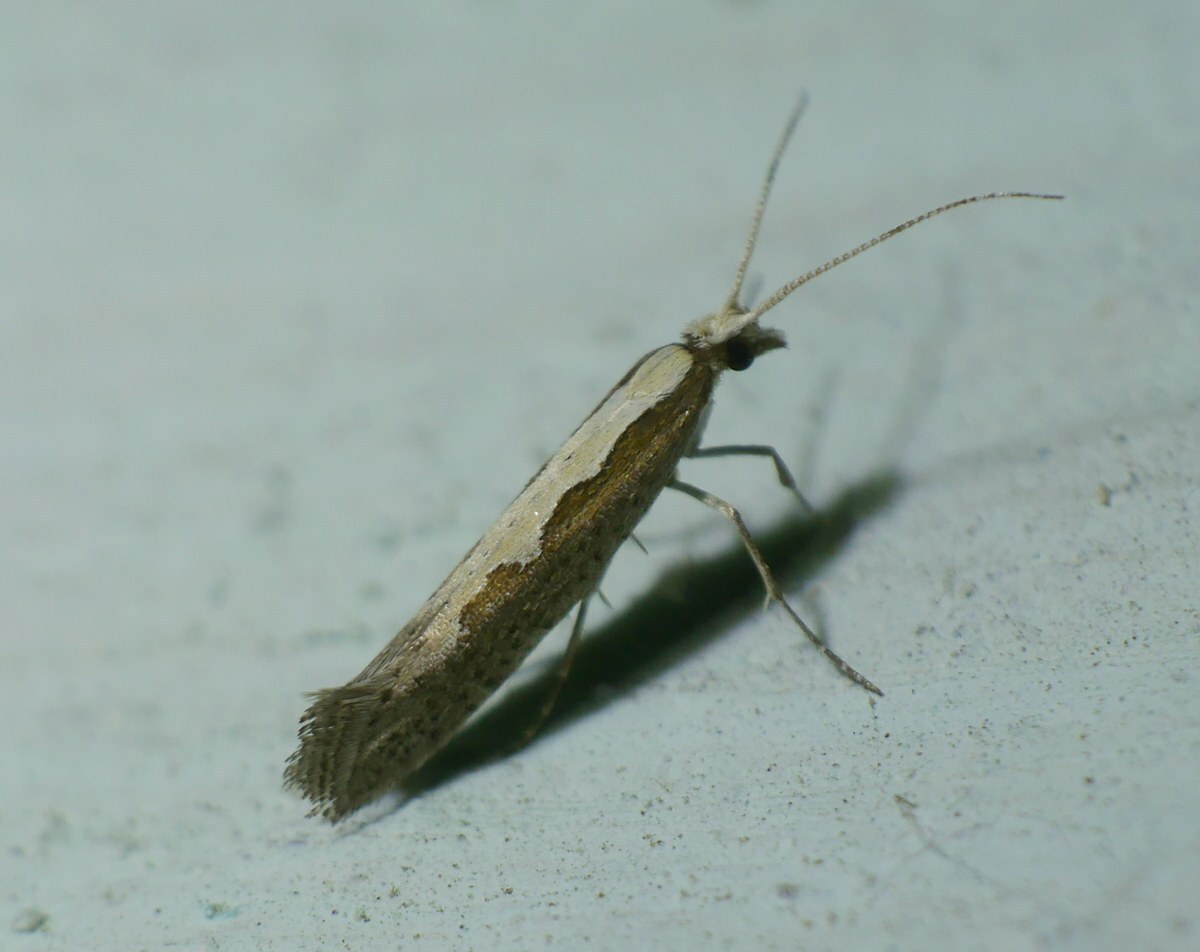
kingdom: Animalia
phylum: Arthropoda
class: Insecta
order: Lepidoptera
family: Plutellidae
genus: Plutella
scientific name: Plutella xylostella
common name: Diamond-back moth
